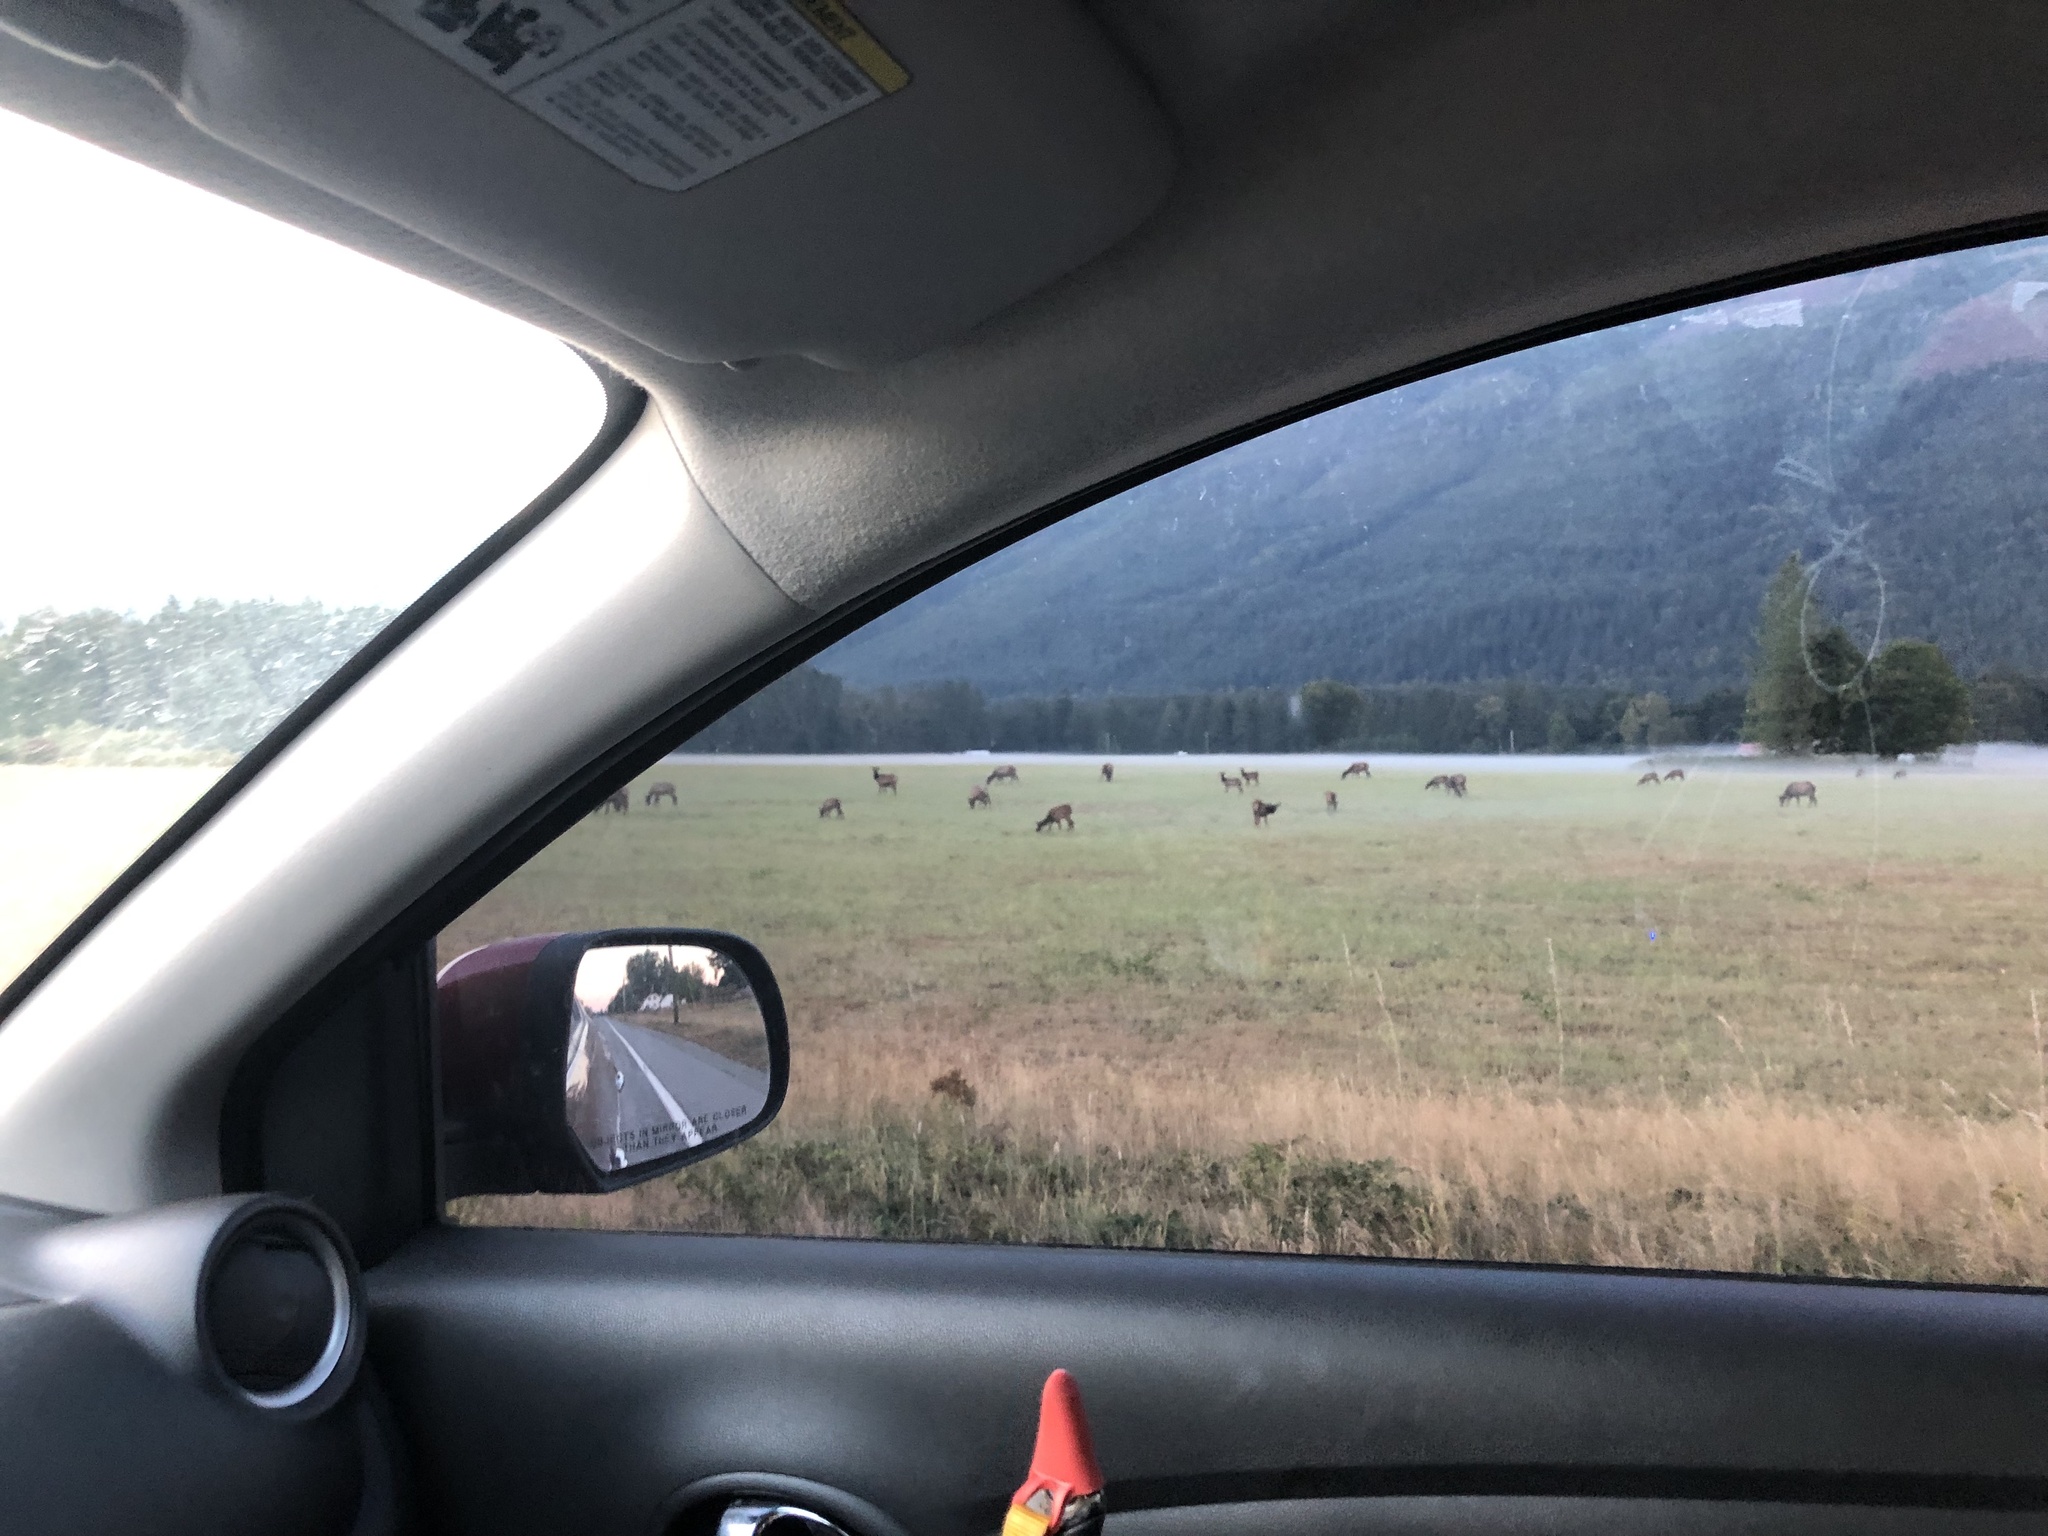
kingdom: Animalia
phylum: Chordata
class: Mammalia
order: Artiodactyla
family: Cervidae
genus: Cervus
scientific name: Cervus elaphus
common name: Red deer
